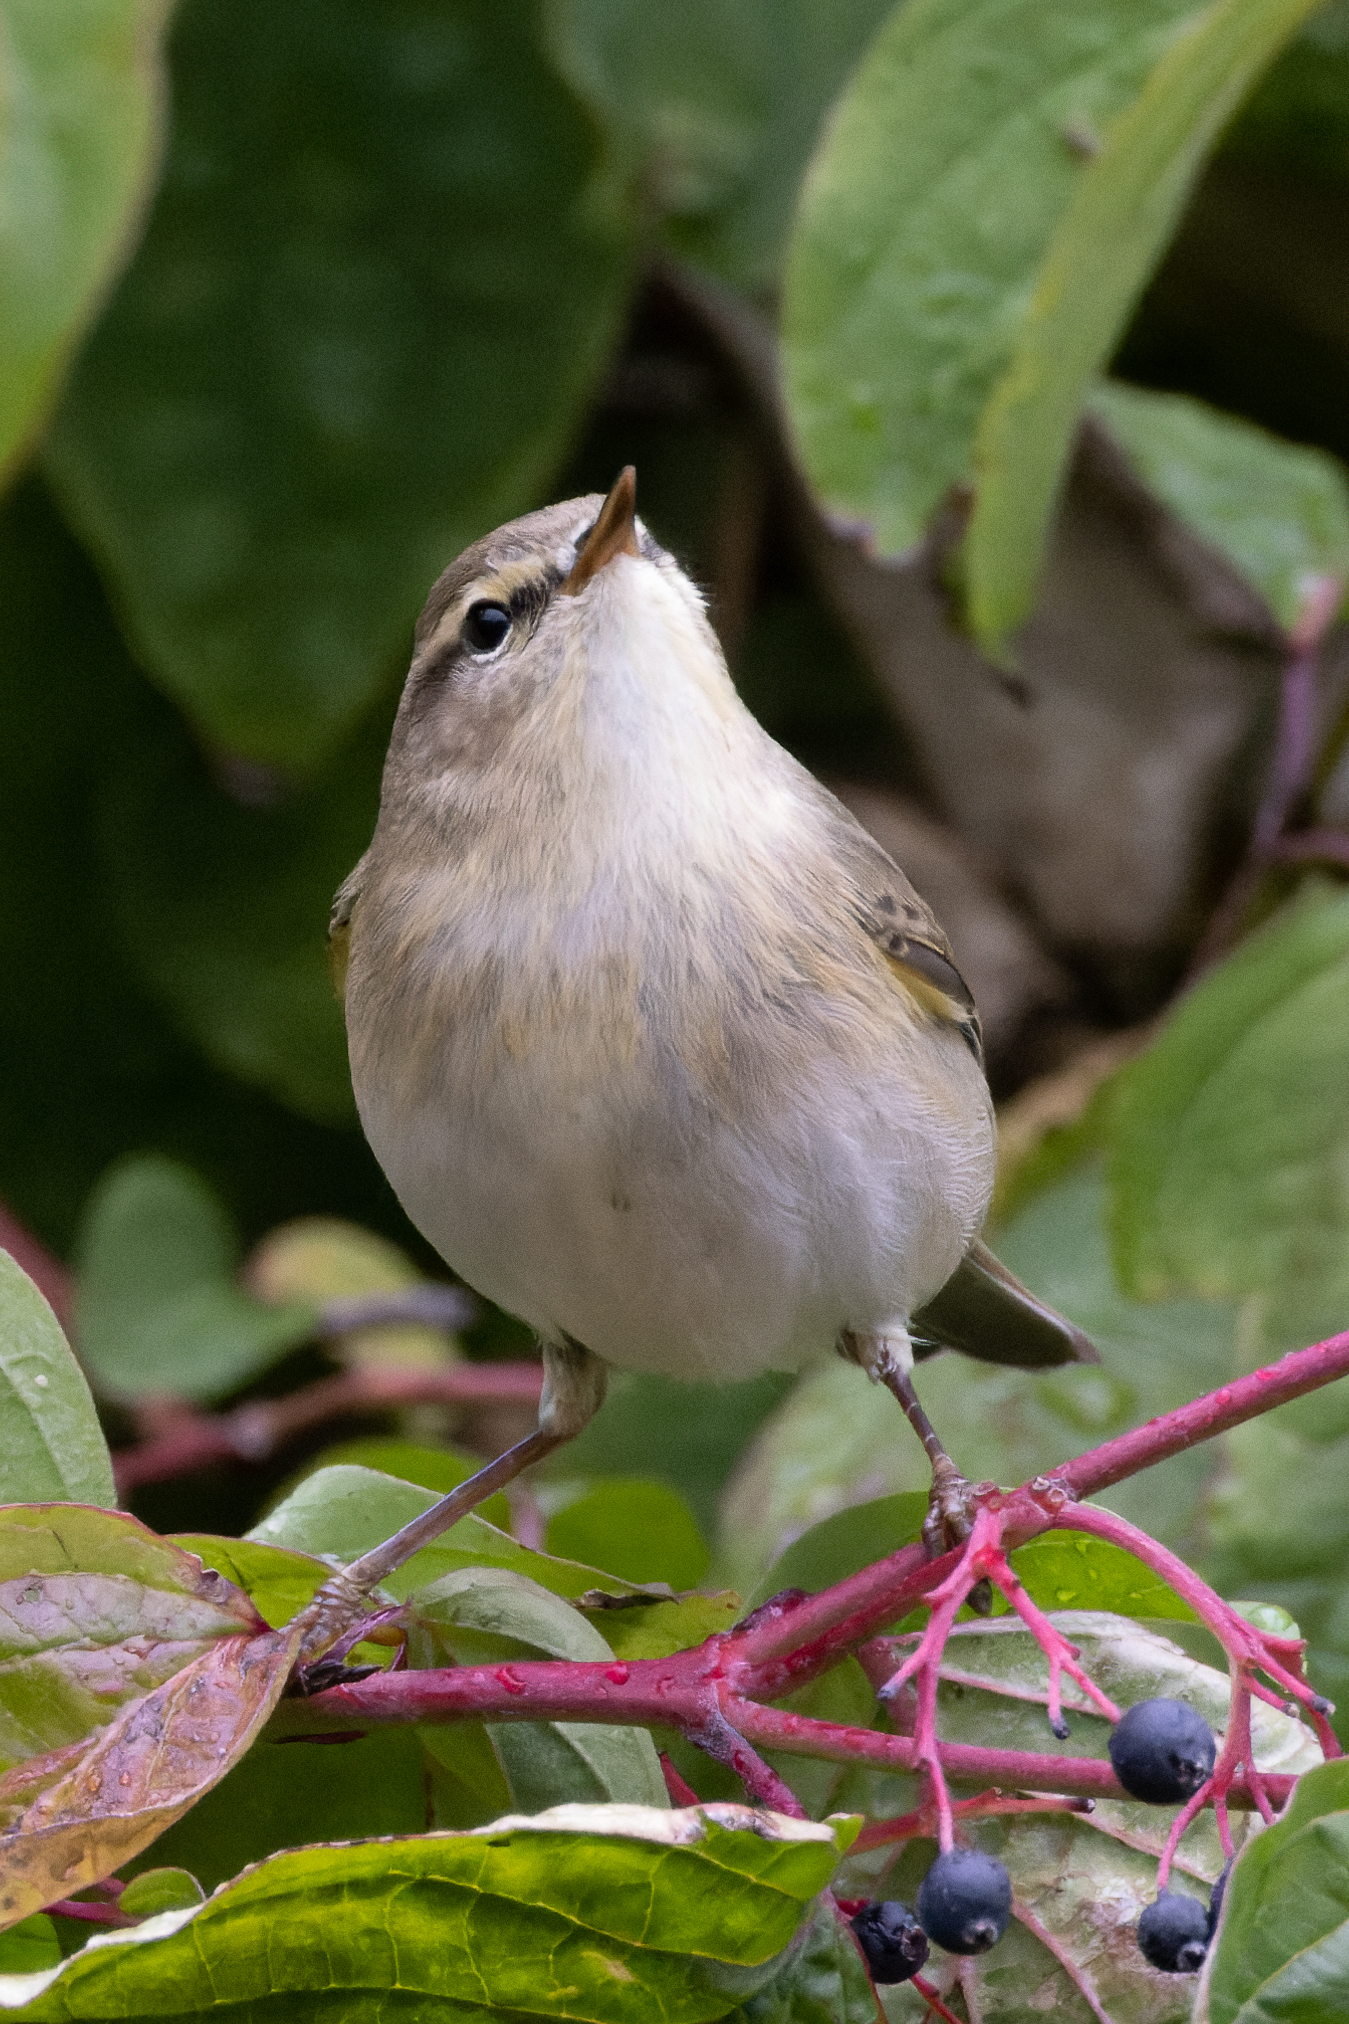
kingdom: Animalia
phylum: Chordata
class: Aves
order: Passeriformes
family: Phylloscopidae
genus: Phylloscopus
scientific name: Phylloscopus collybita
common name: Common chiffchaff
